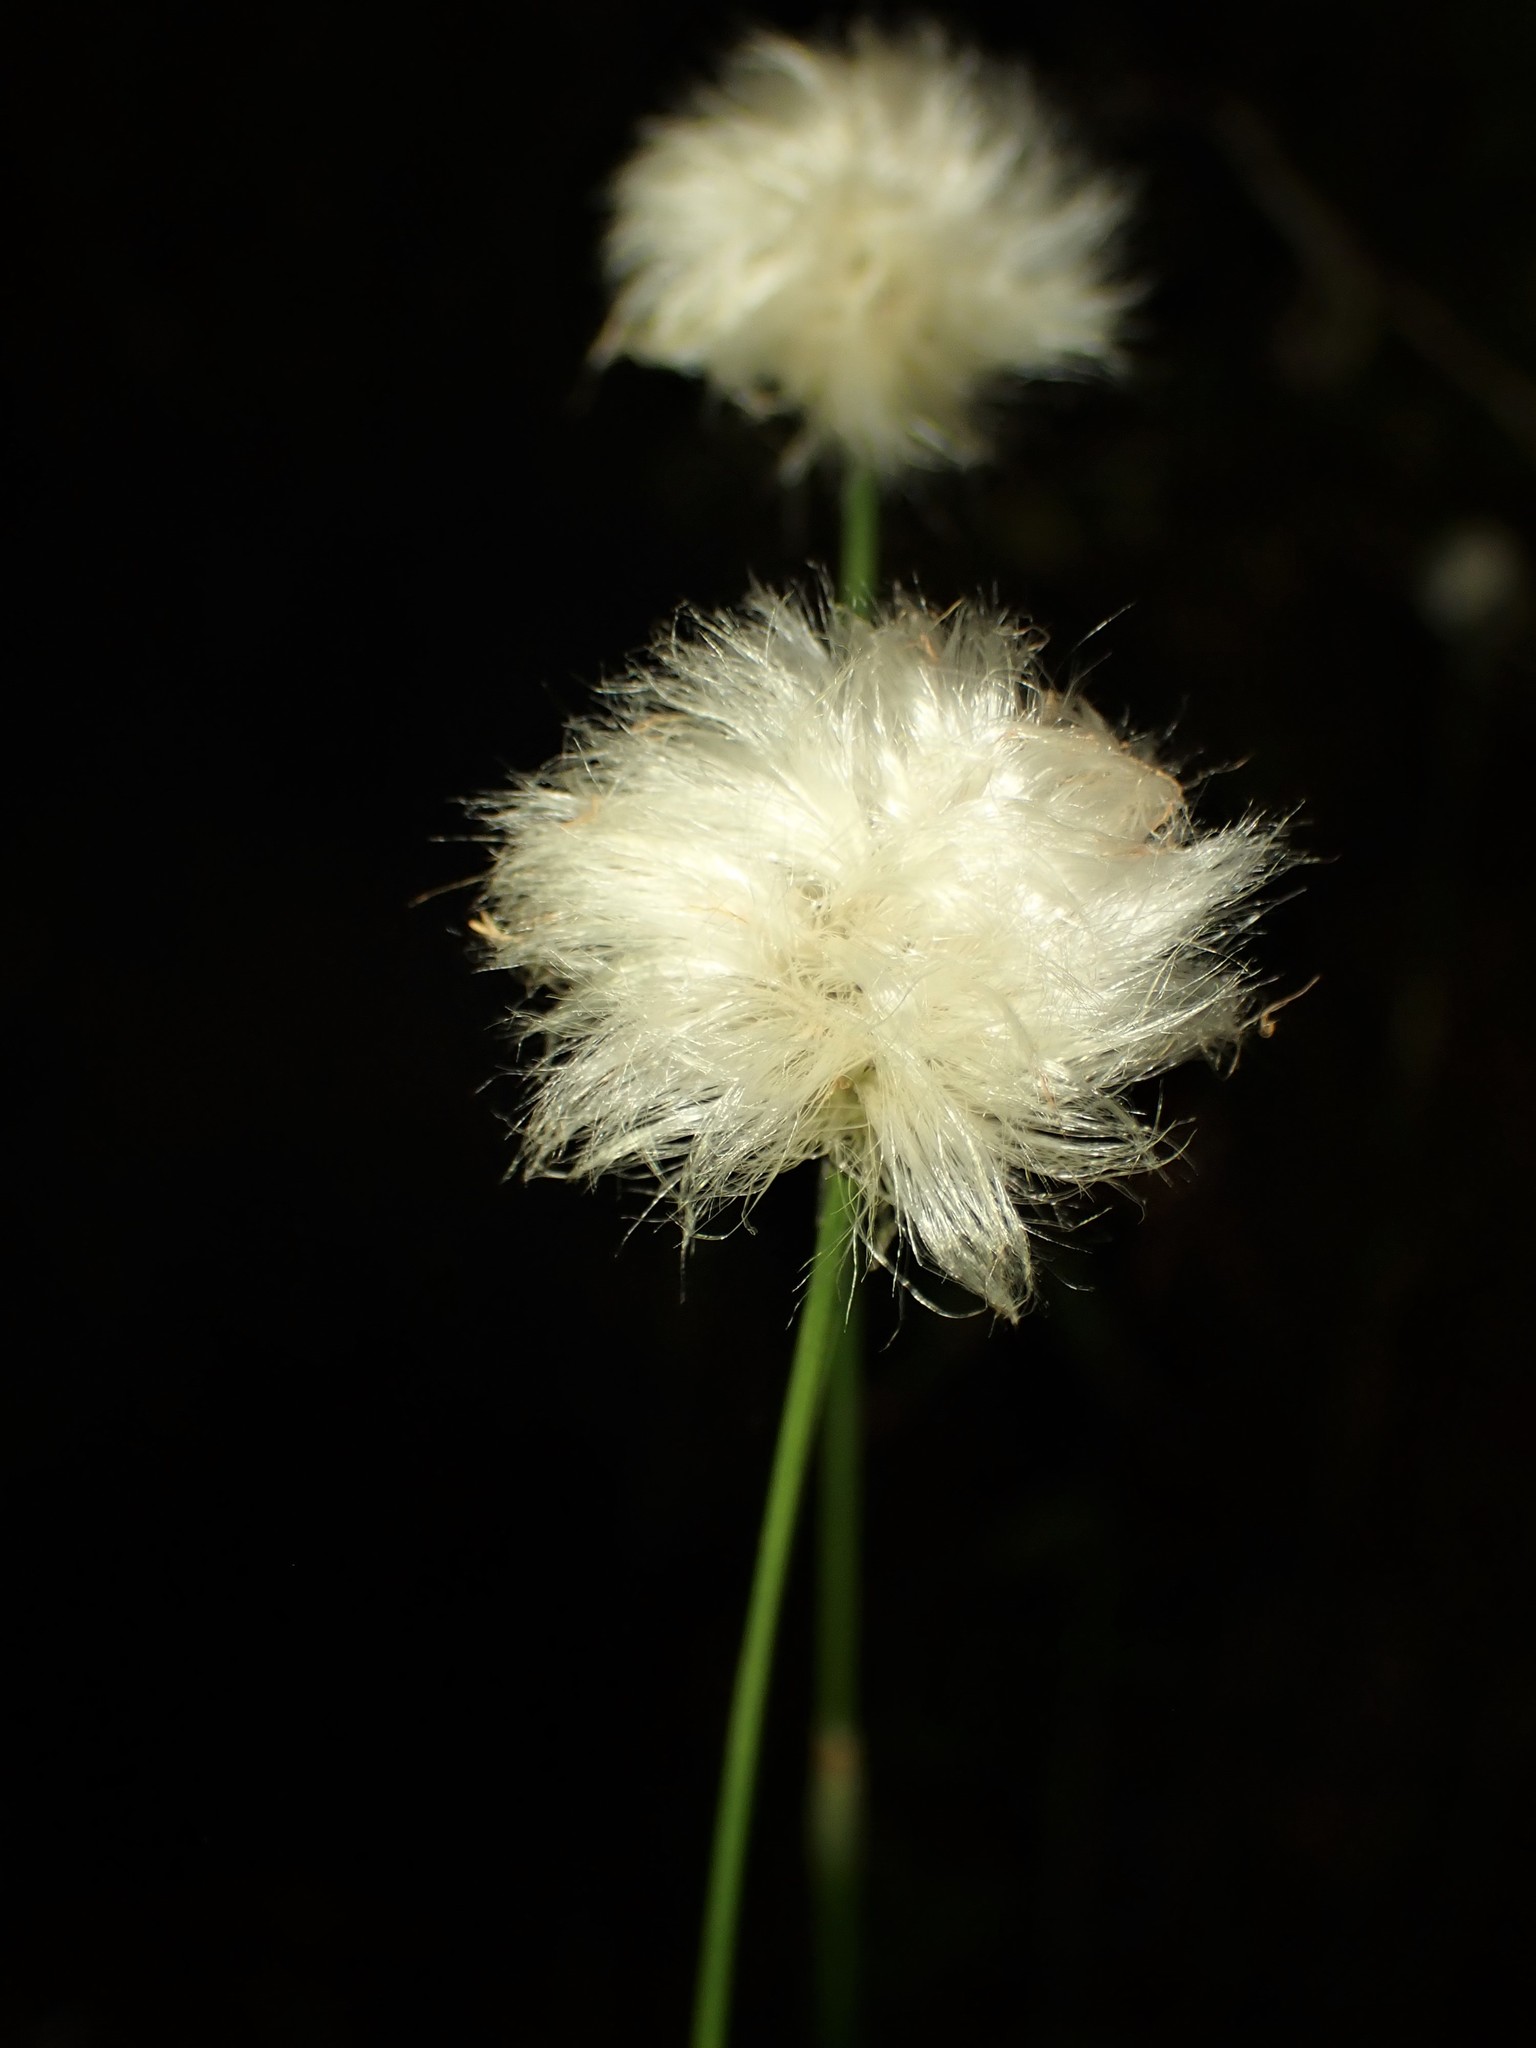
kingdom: Plantae
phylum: Tracheophyta
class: Liliopsida
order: Poales
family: Cyperaceae
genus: Eriophorum
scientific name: Eriophorum vaginatum
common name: Hare's-tail cottongrass
